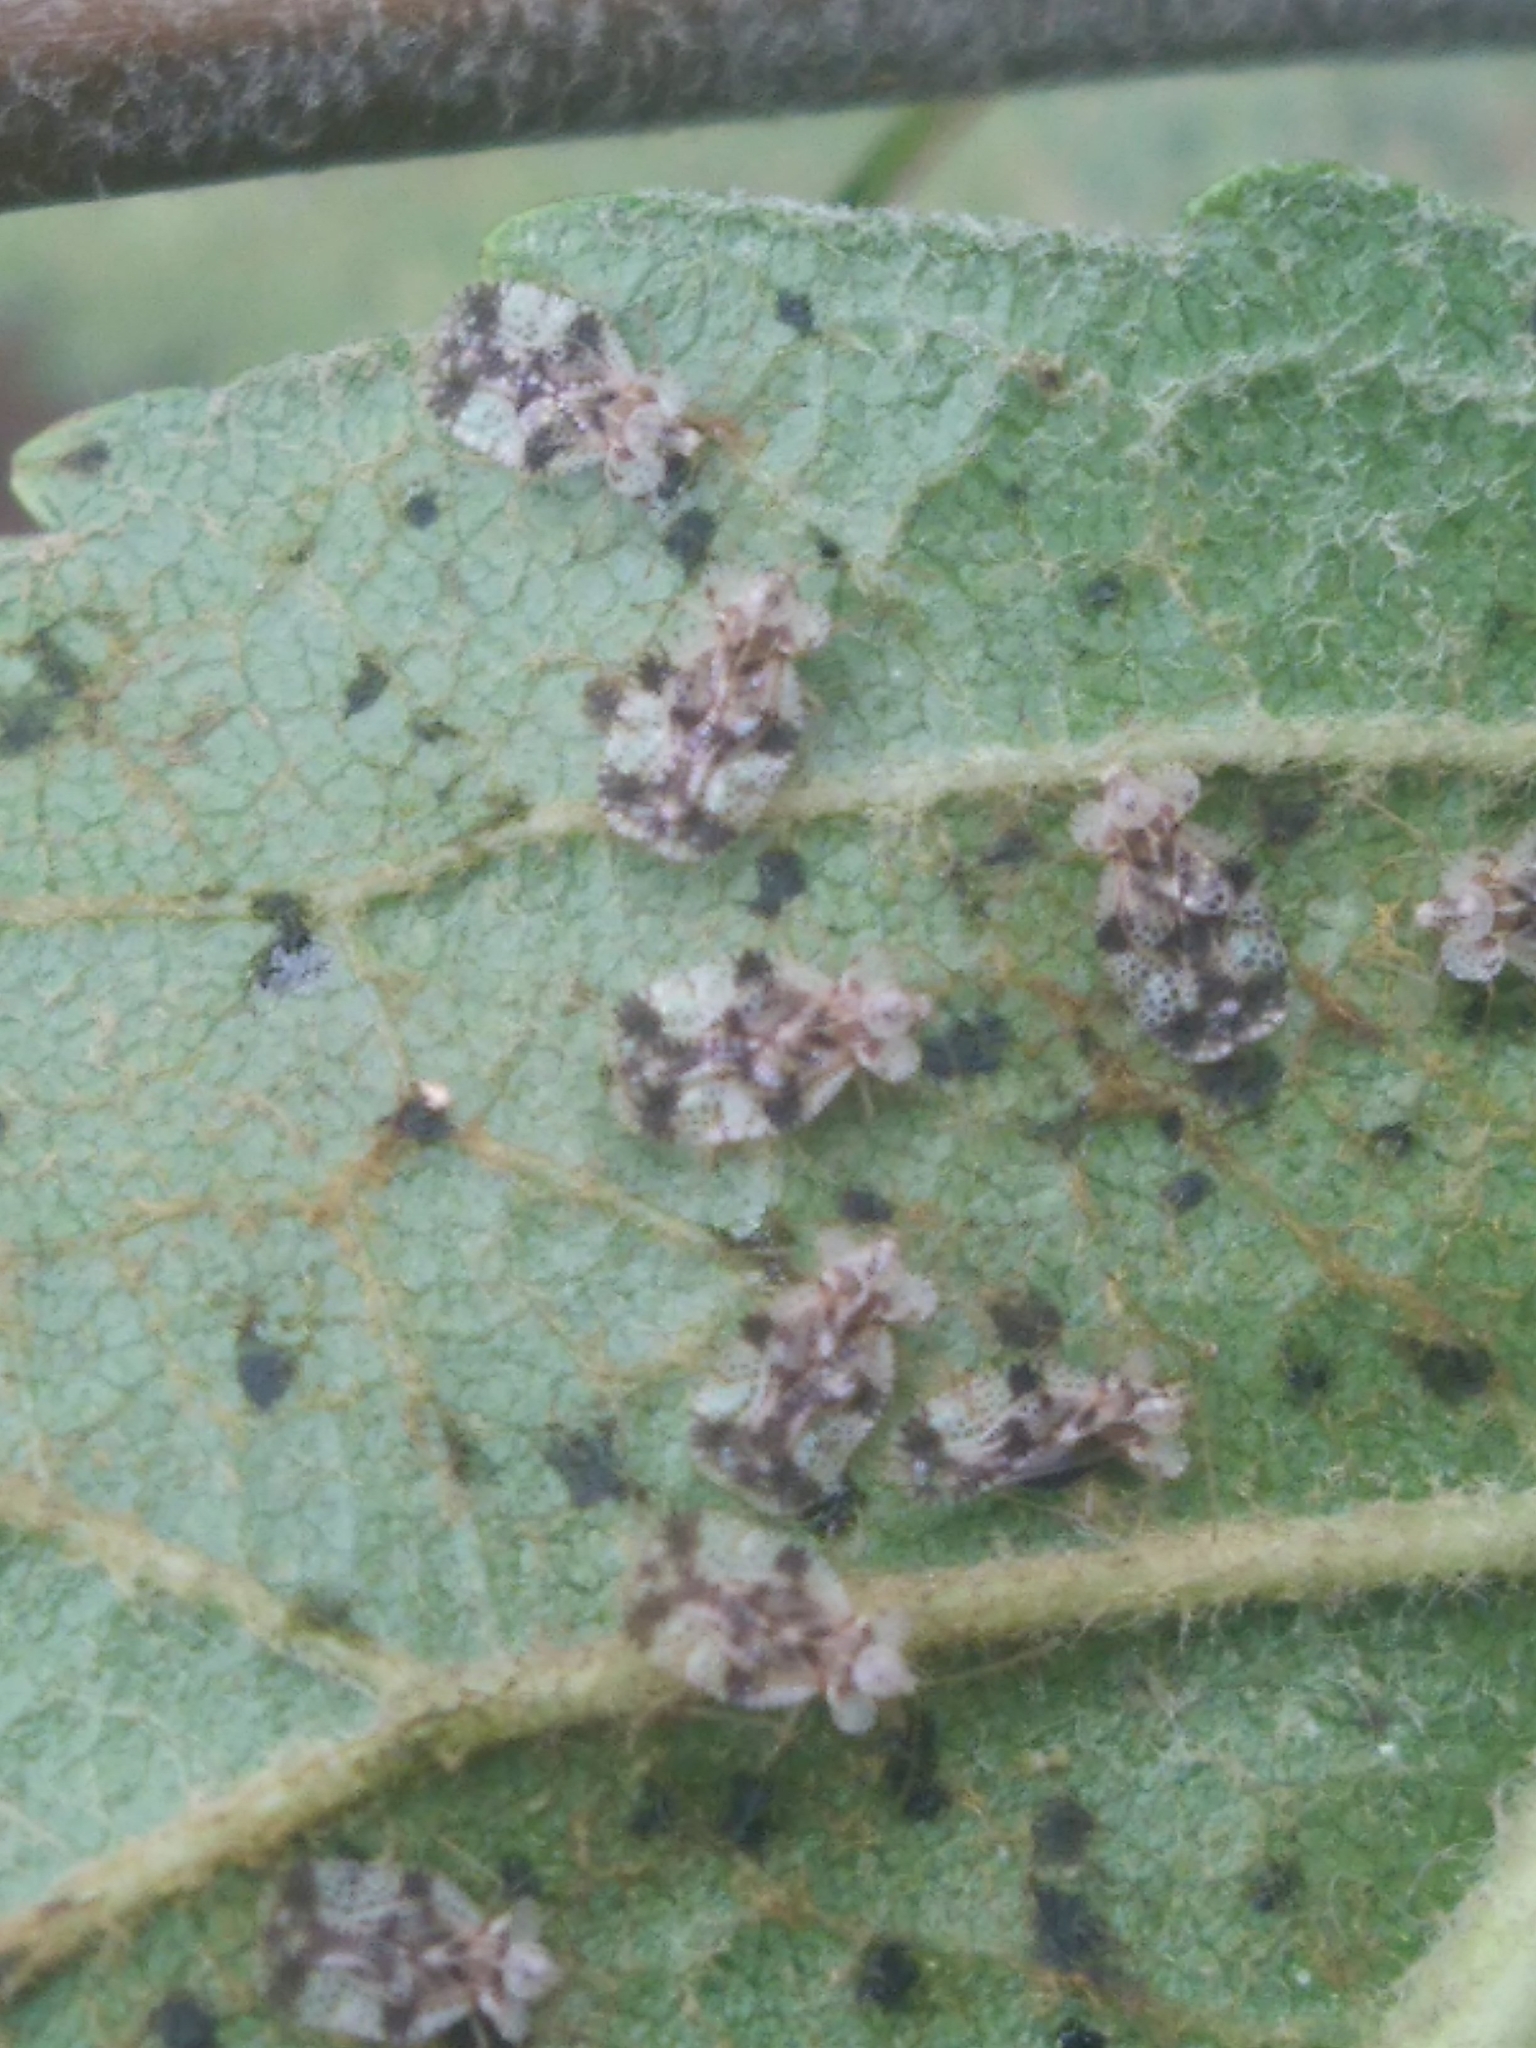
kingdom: Animalia
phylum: Arthropoda
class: Insecta
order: Hemiptera
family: Tingidae
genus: Stephanitis
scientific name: Stephanitis pyri
